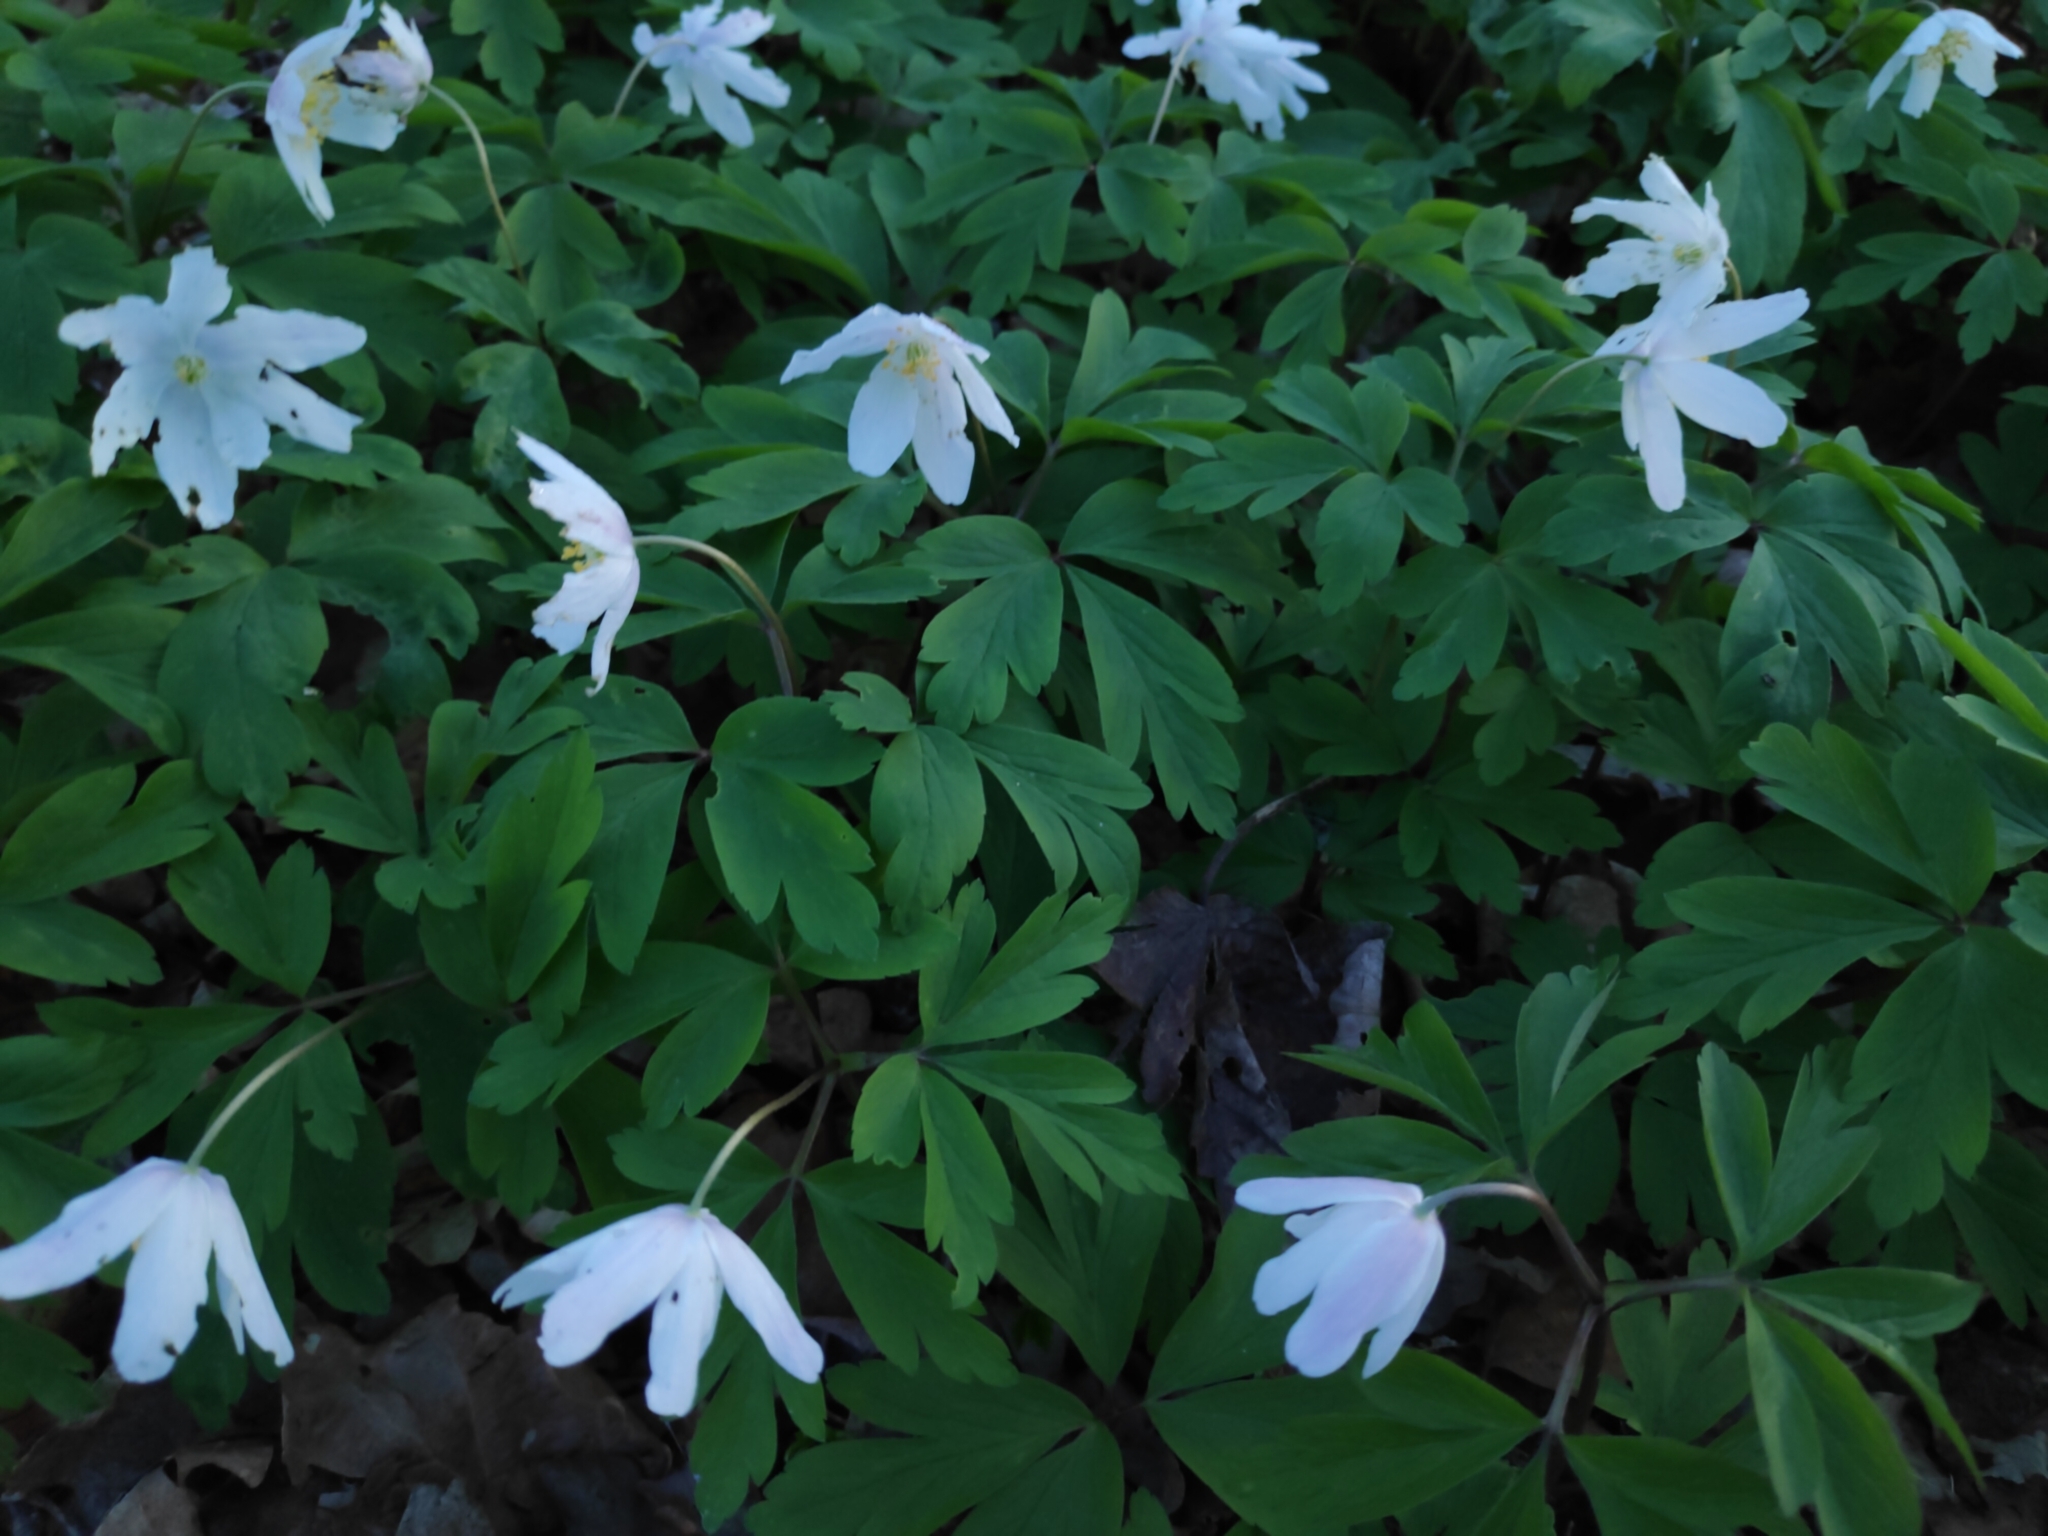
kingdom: Plantae
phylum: Tracheophyta
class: Magnoliopsida
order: Ranunculales
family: Ranunculaceae
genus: Anemone
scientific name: Anemone nemorosa
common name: Wood anemone
